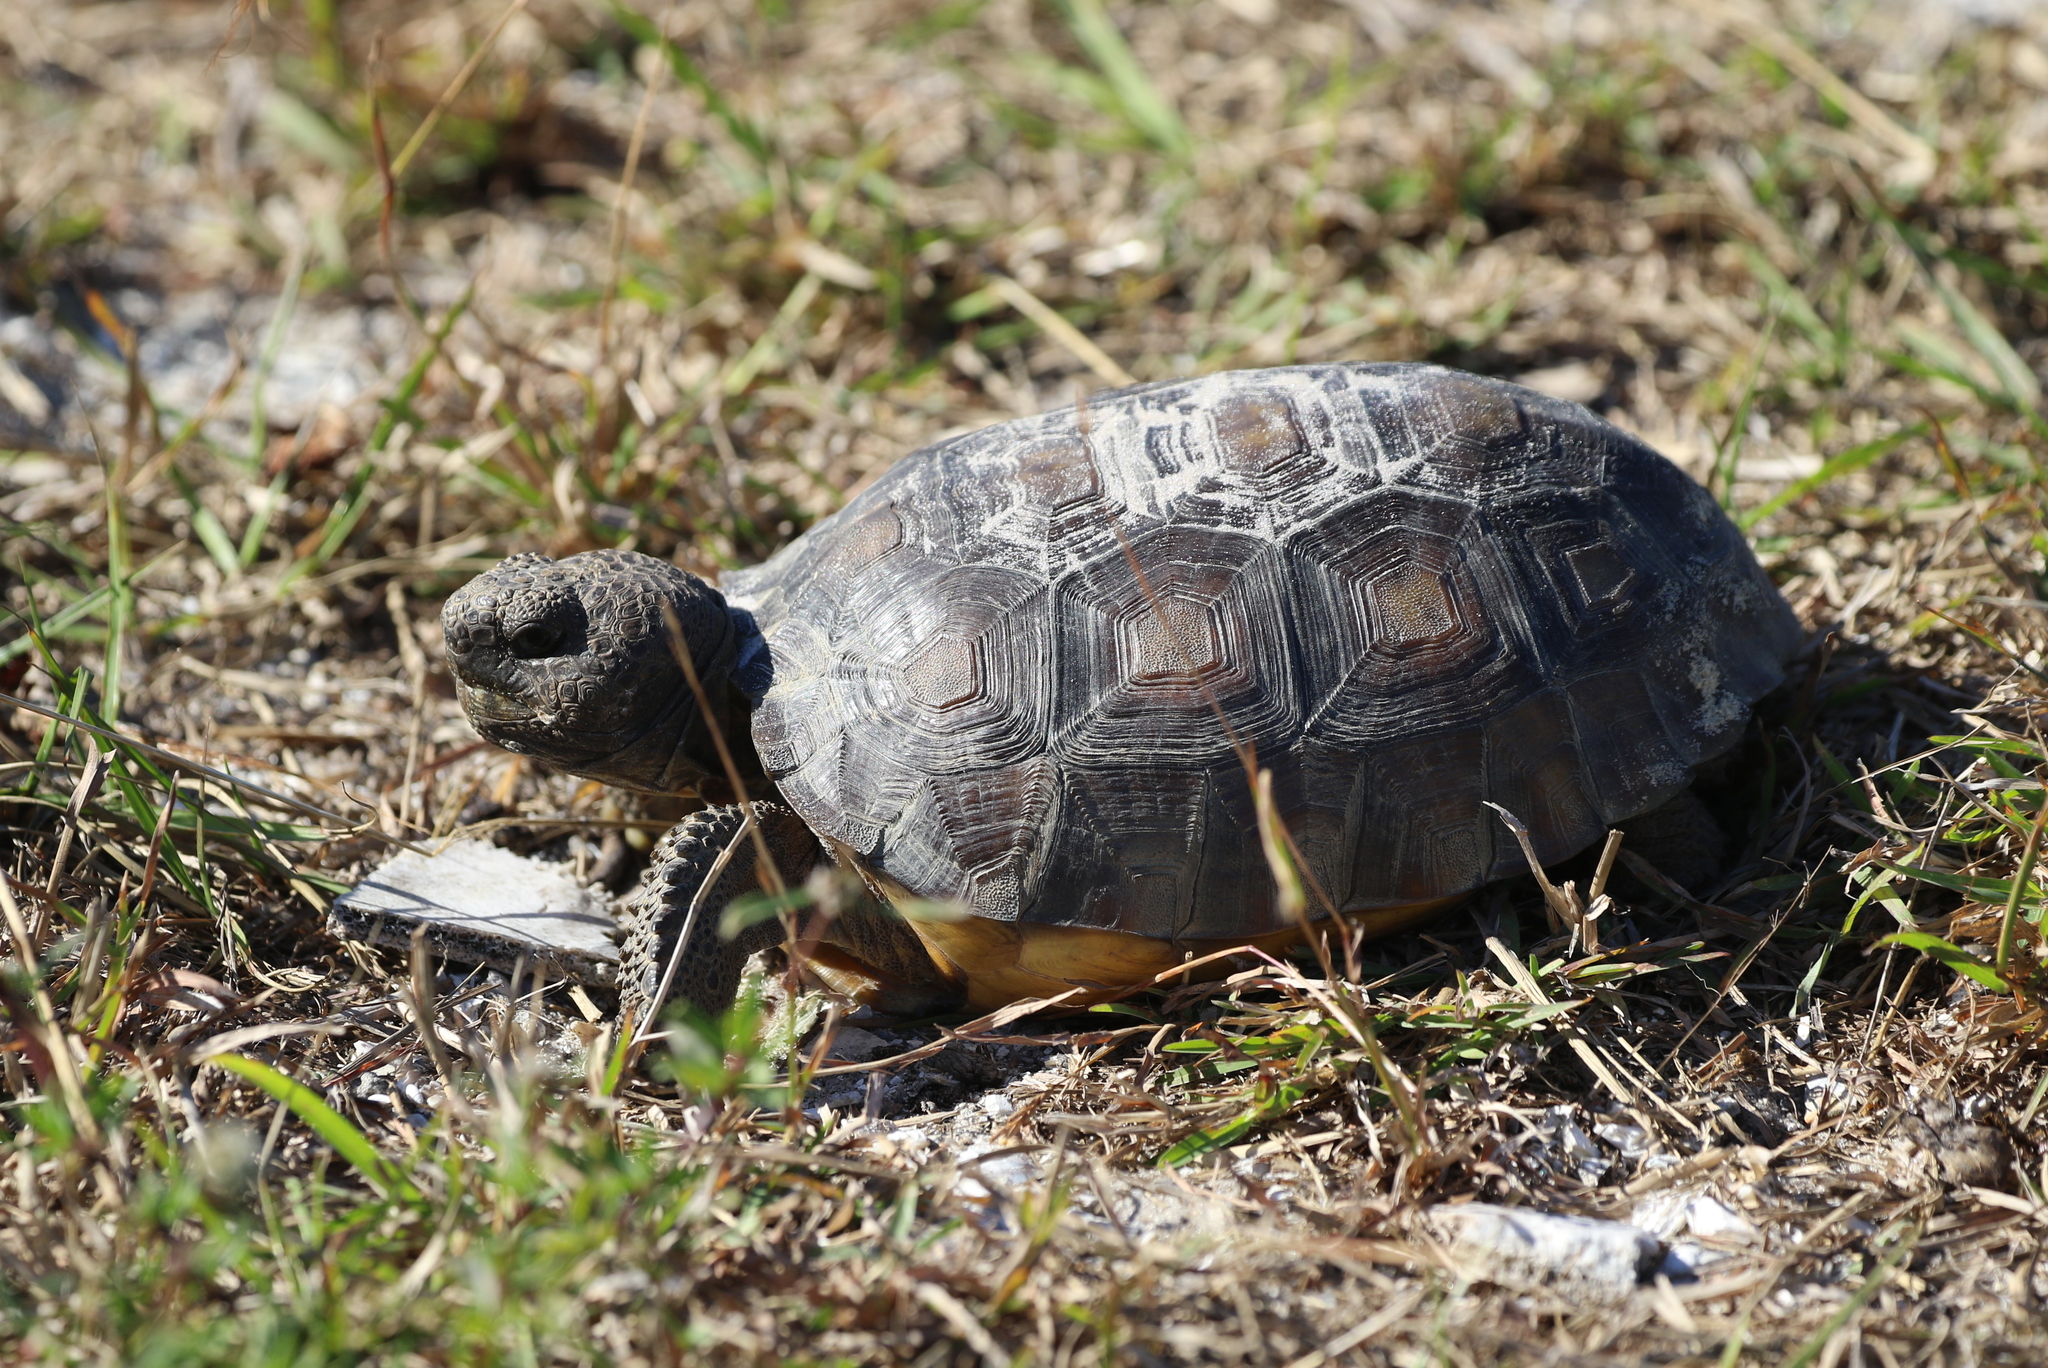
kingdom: Animalia
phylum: Chordata
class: Testudines
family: Testudinidae
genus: Gopherus
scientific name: Gopherus polyphemus
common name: Florida gopher tortoise
